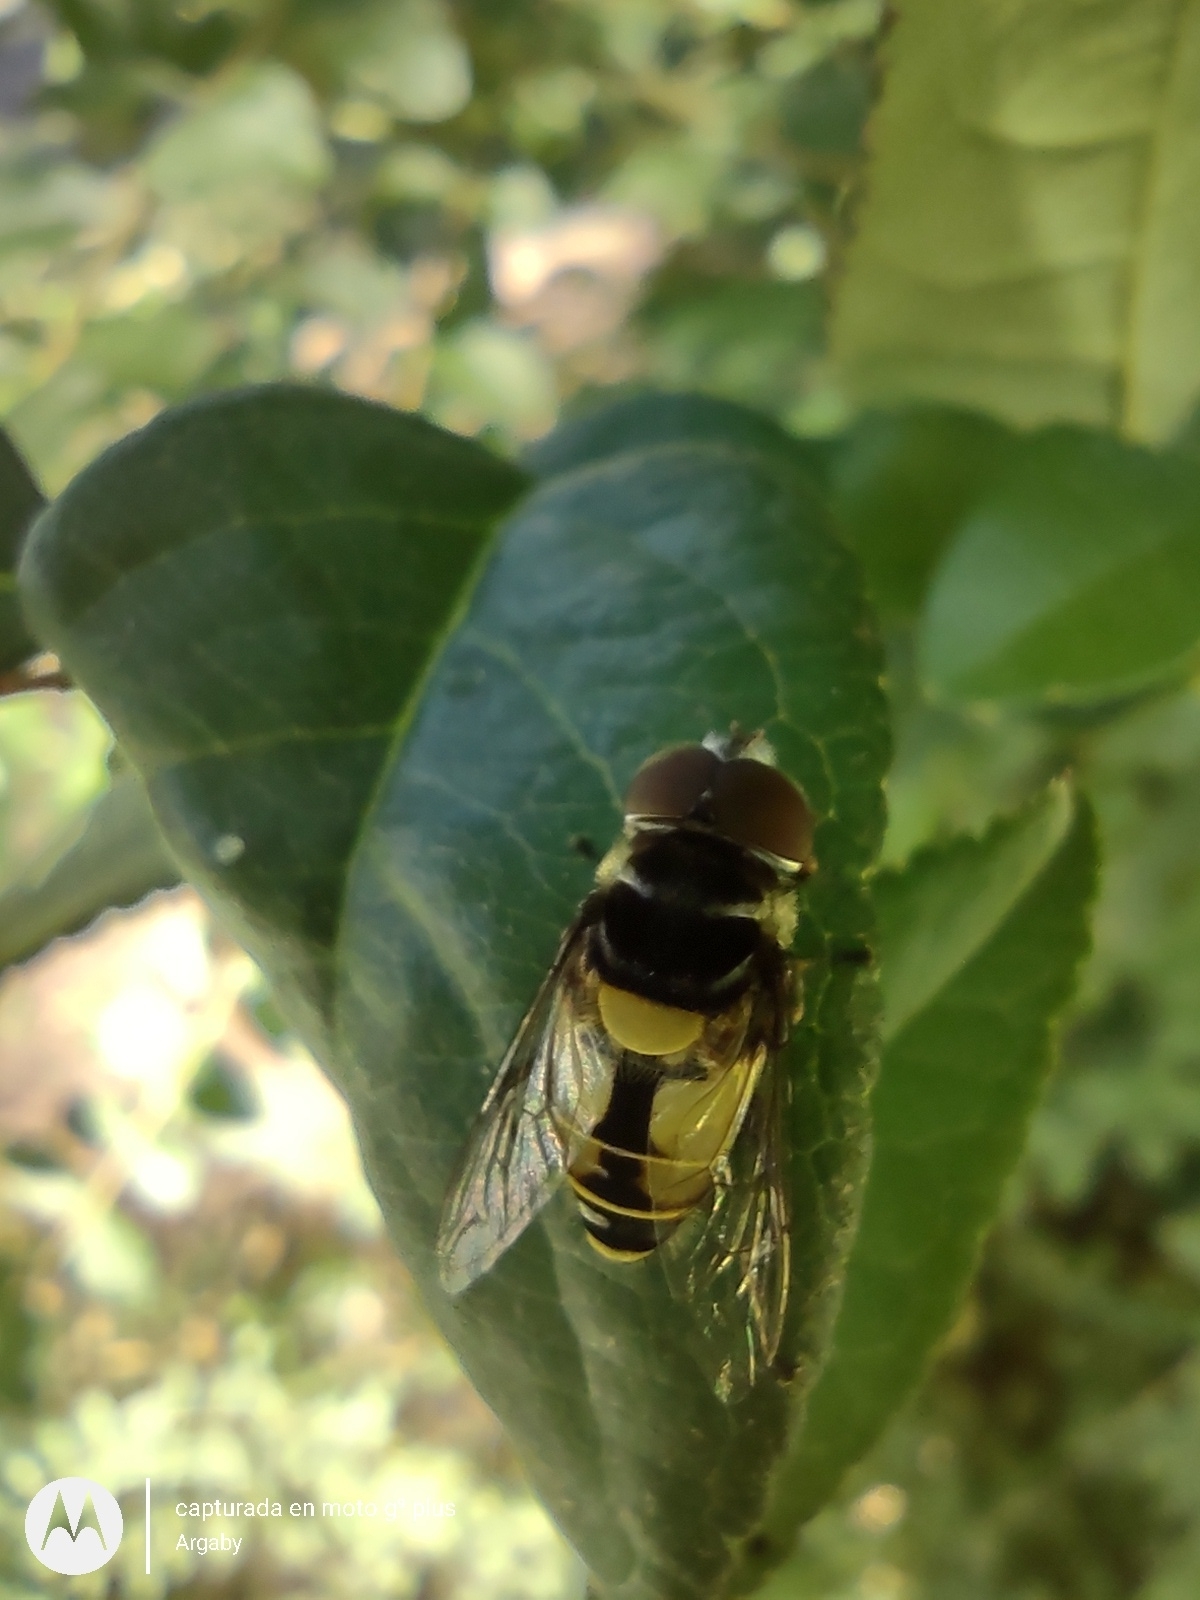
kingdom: Animalia
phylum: Arthropoda
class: Insecta
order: Diptera
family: Syrphidae
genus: Palpada
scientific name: Palpada
